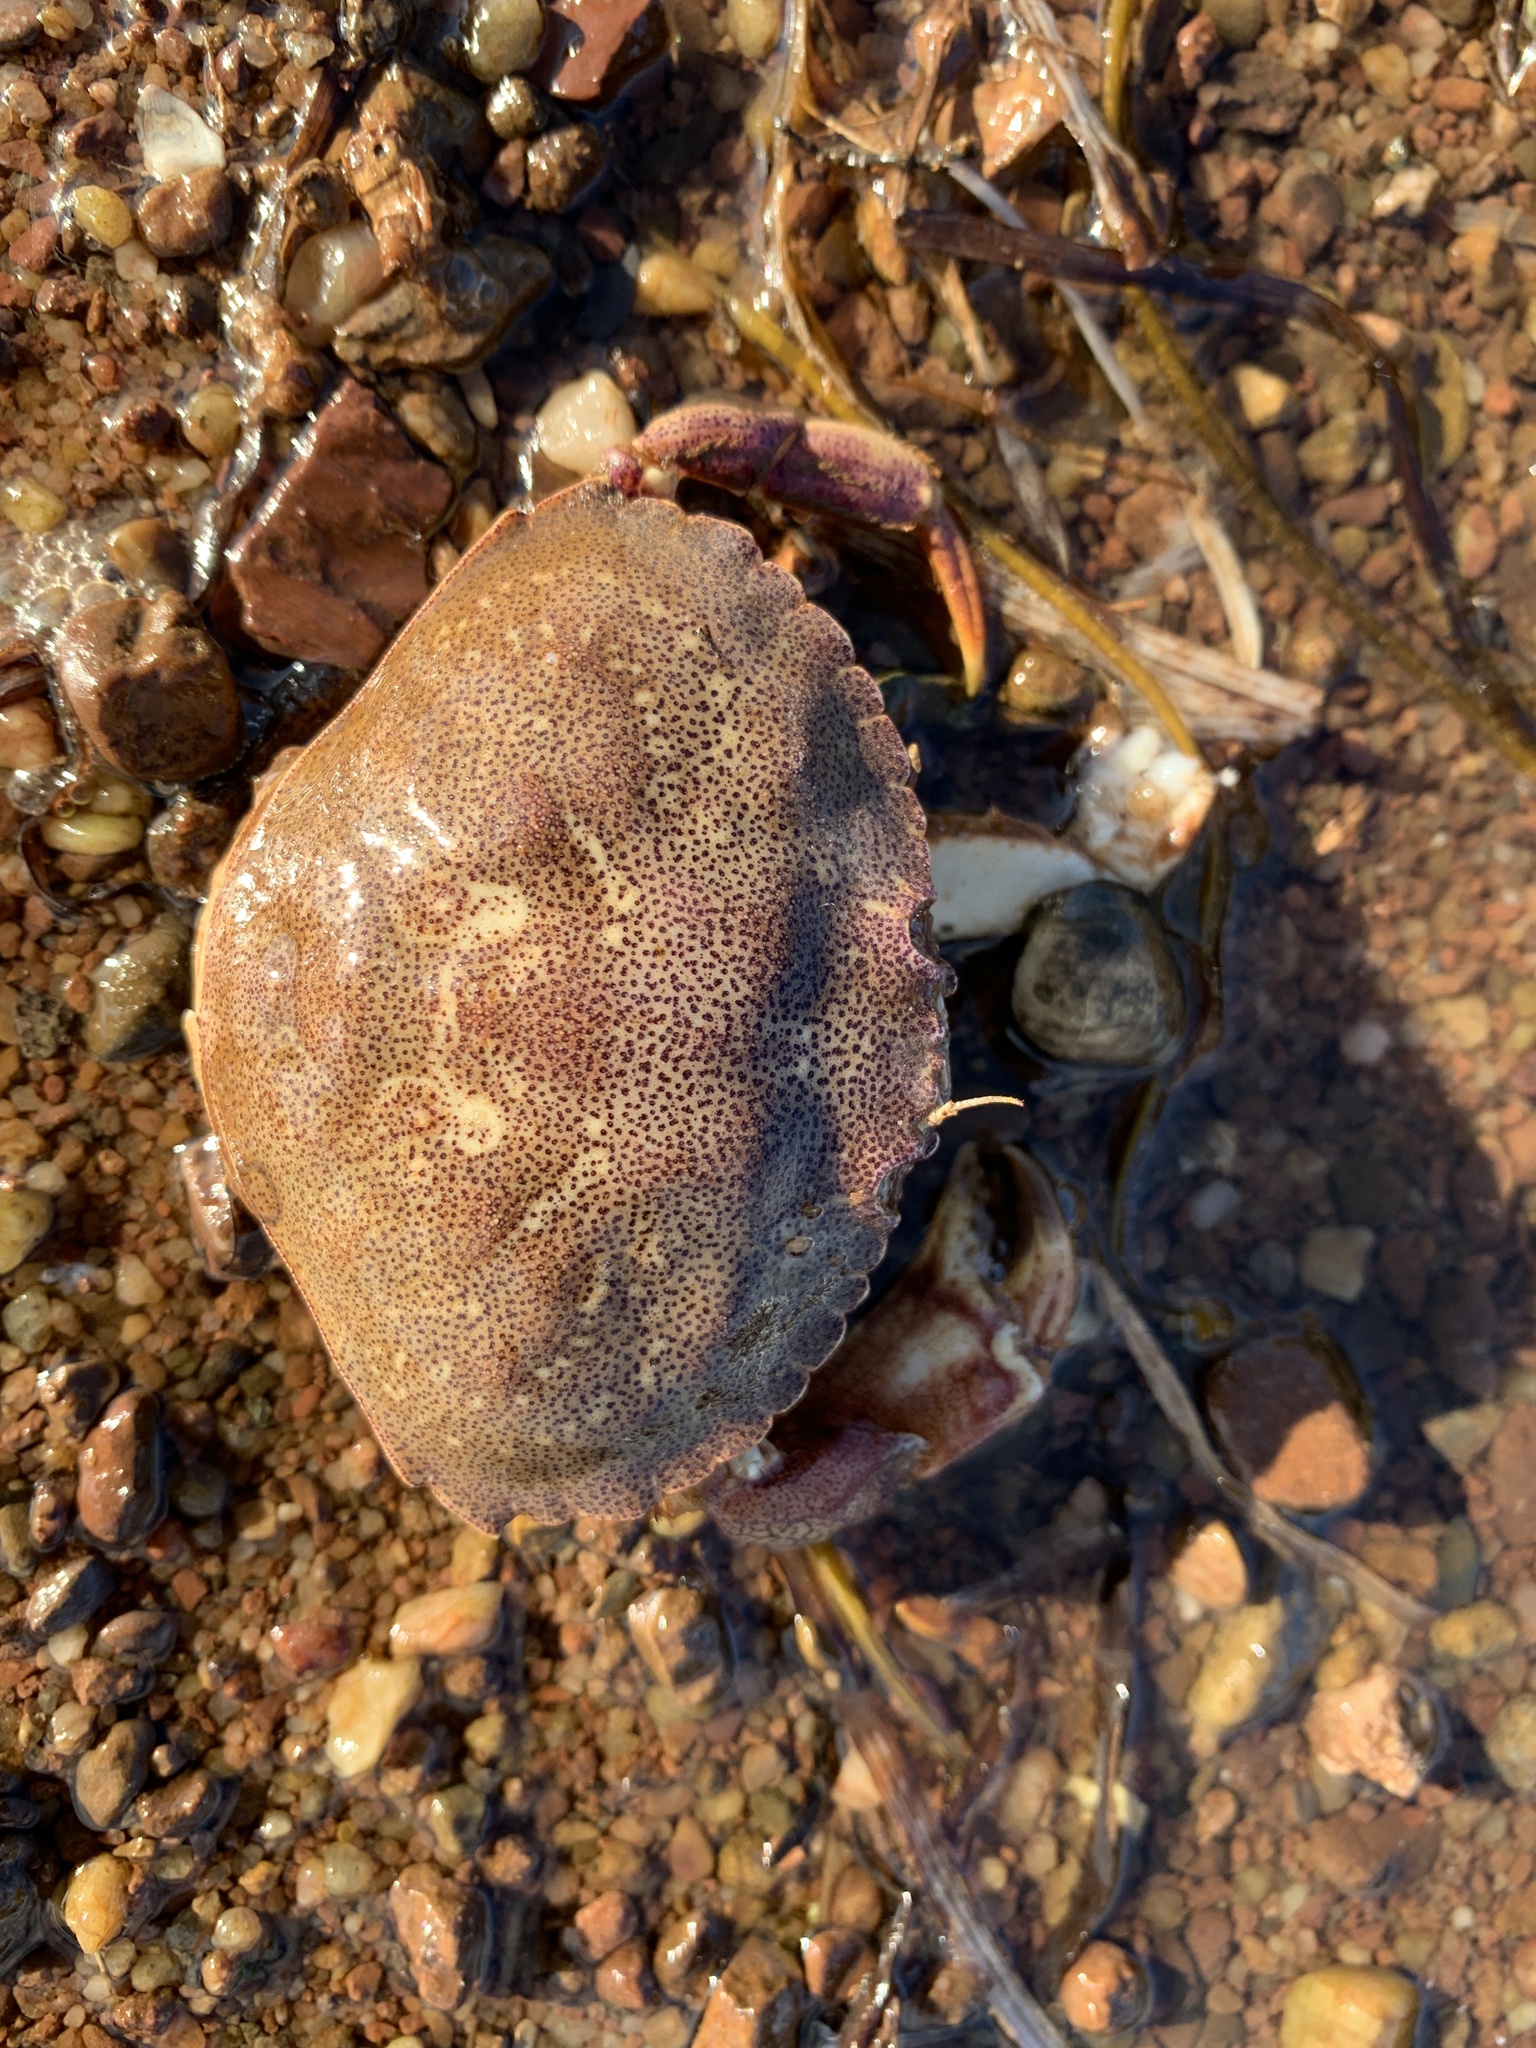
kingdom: Animalia
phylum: Arthropoda
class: Malacostraca
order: Decapoda
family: Cancridae
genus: Cancer
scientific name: Cancer irroratus
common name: Atlantic rock crab
